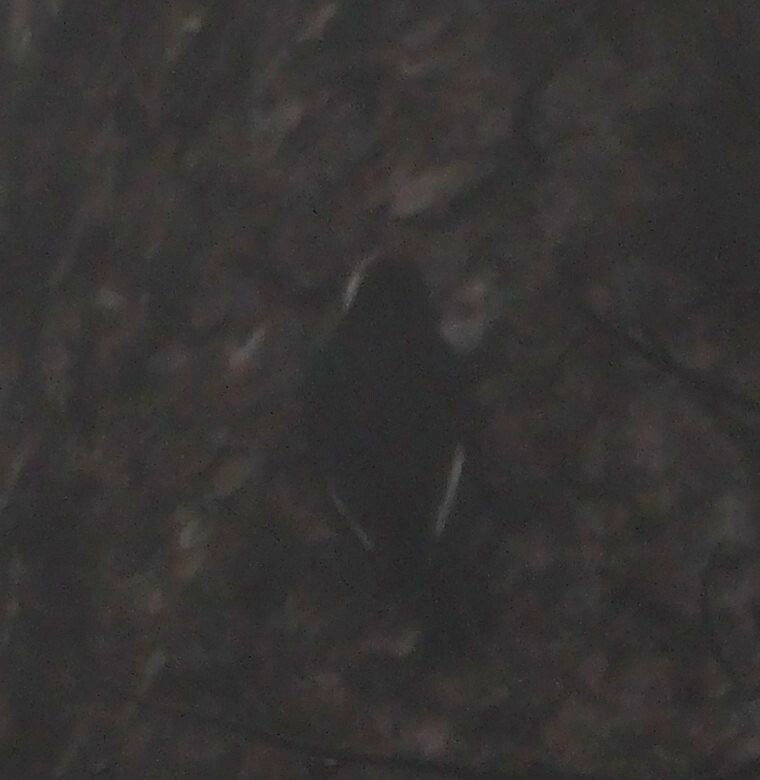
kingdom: Animalia
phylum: Chordata
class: Aves
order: Piciformes
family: Picidae
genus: Leuconotopicus
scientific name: Leuconotopicus albolarvatus
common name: White-headed woodpecker
